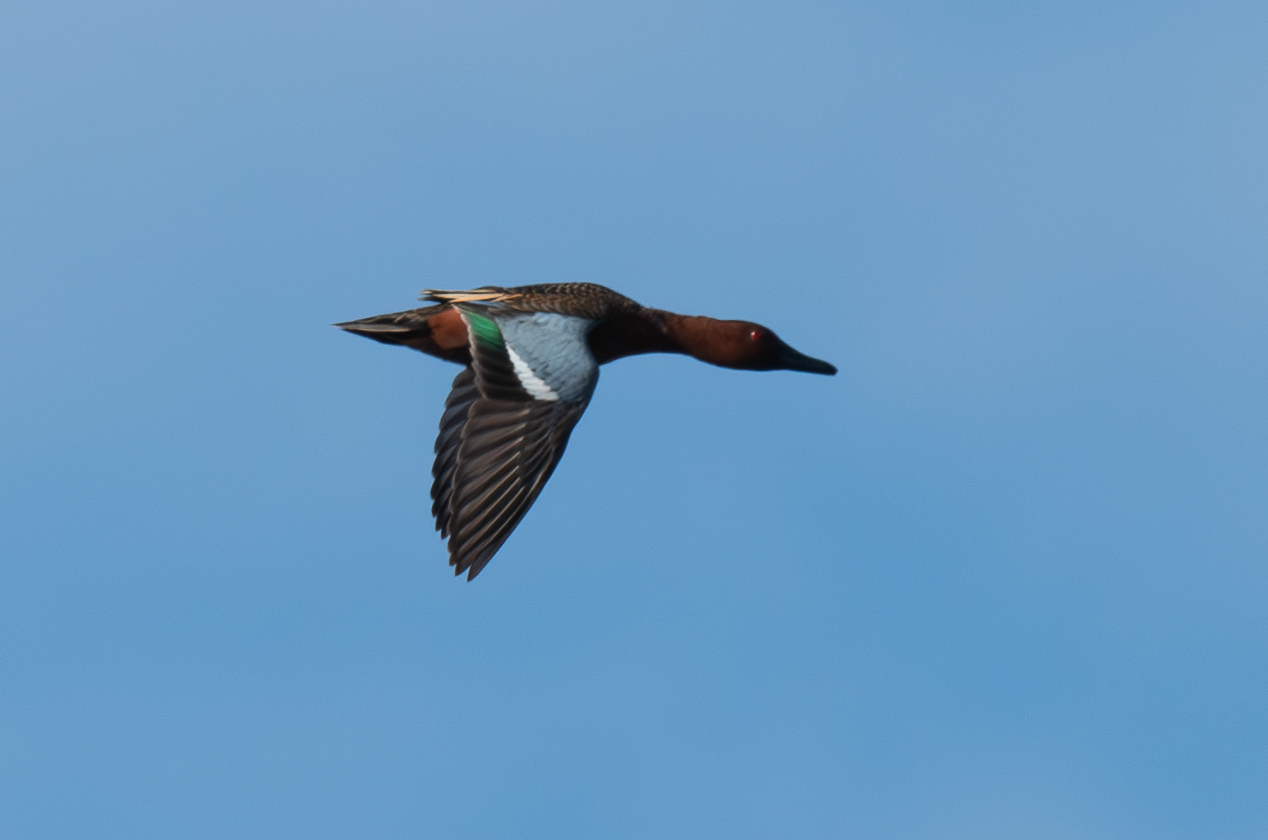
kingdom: Animalia
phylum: Chordata
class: Aves
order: Anseriformes
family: Anatidae
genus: Spatula
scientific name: Spatula cyanoptera
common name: Cinnamon teal
